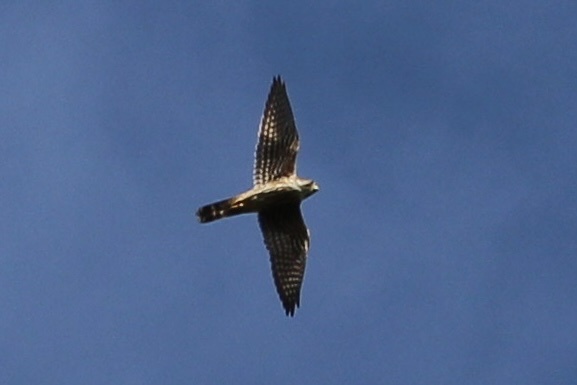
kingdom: Animalia
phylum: Chordata
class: Aves
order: Falconiformes
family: Falconidae
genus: Falco
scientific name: Falco columbarius
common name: Merlin
